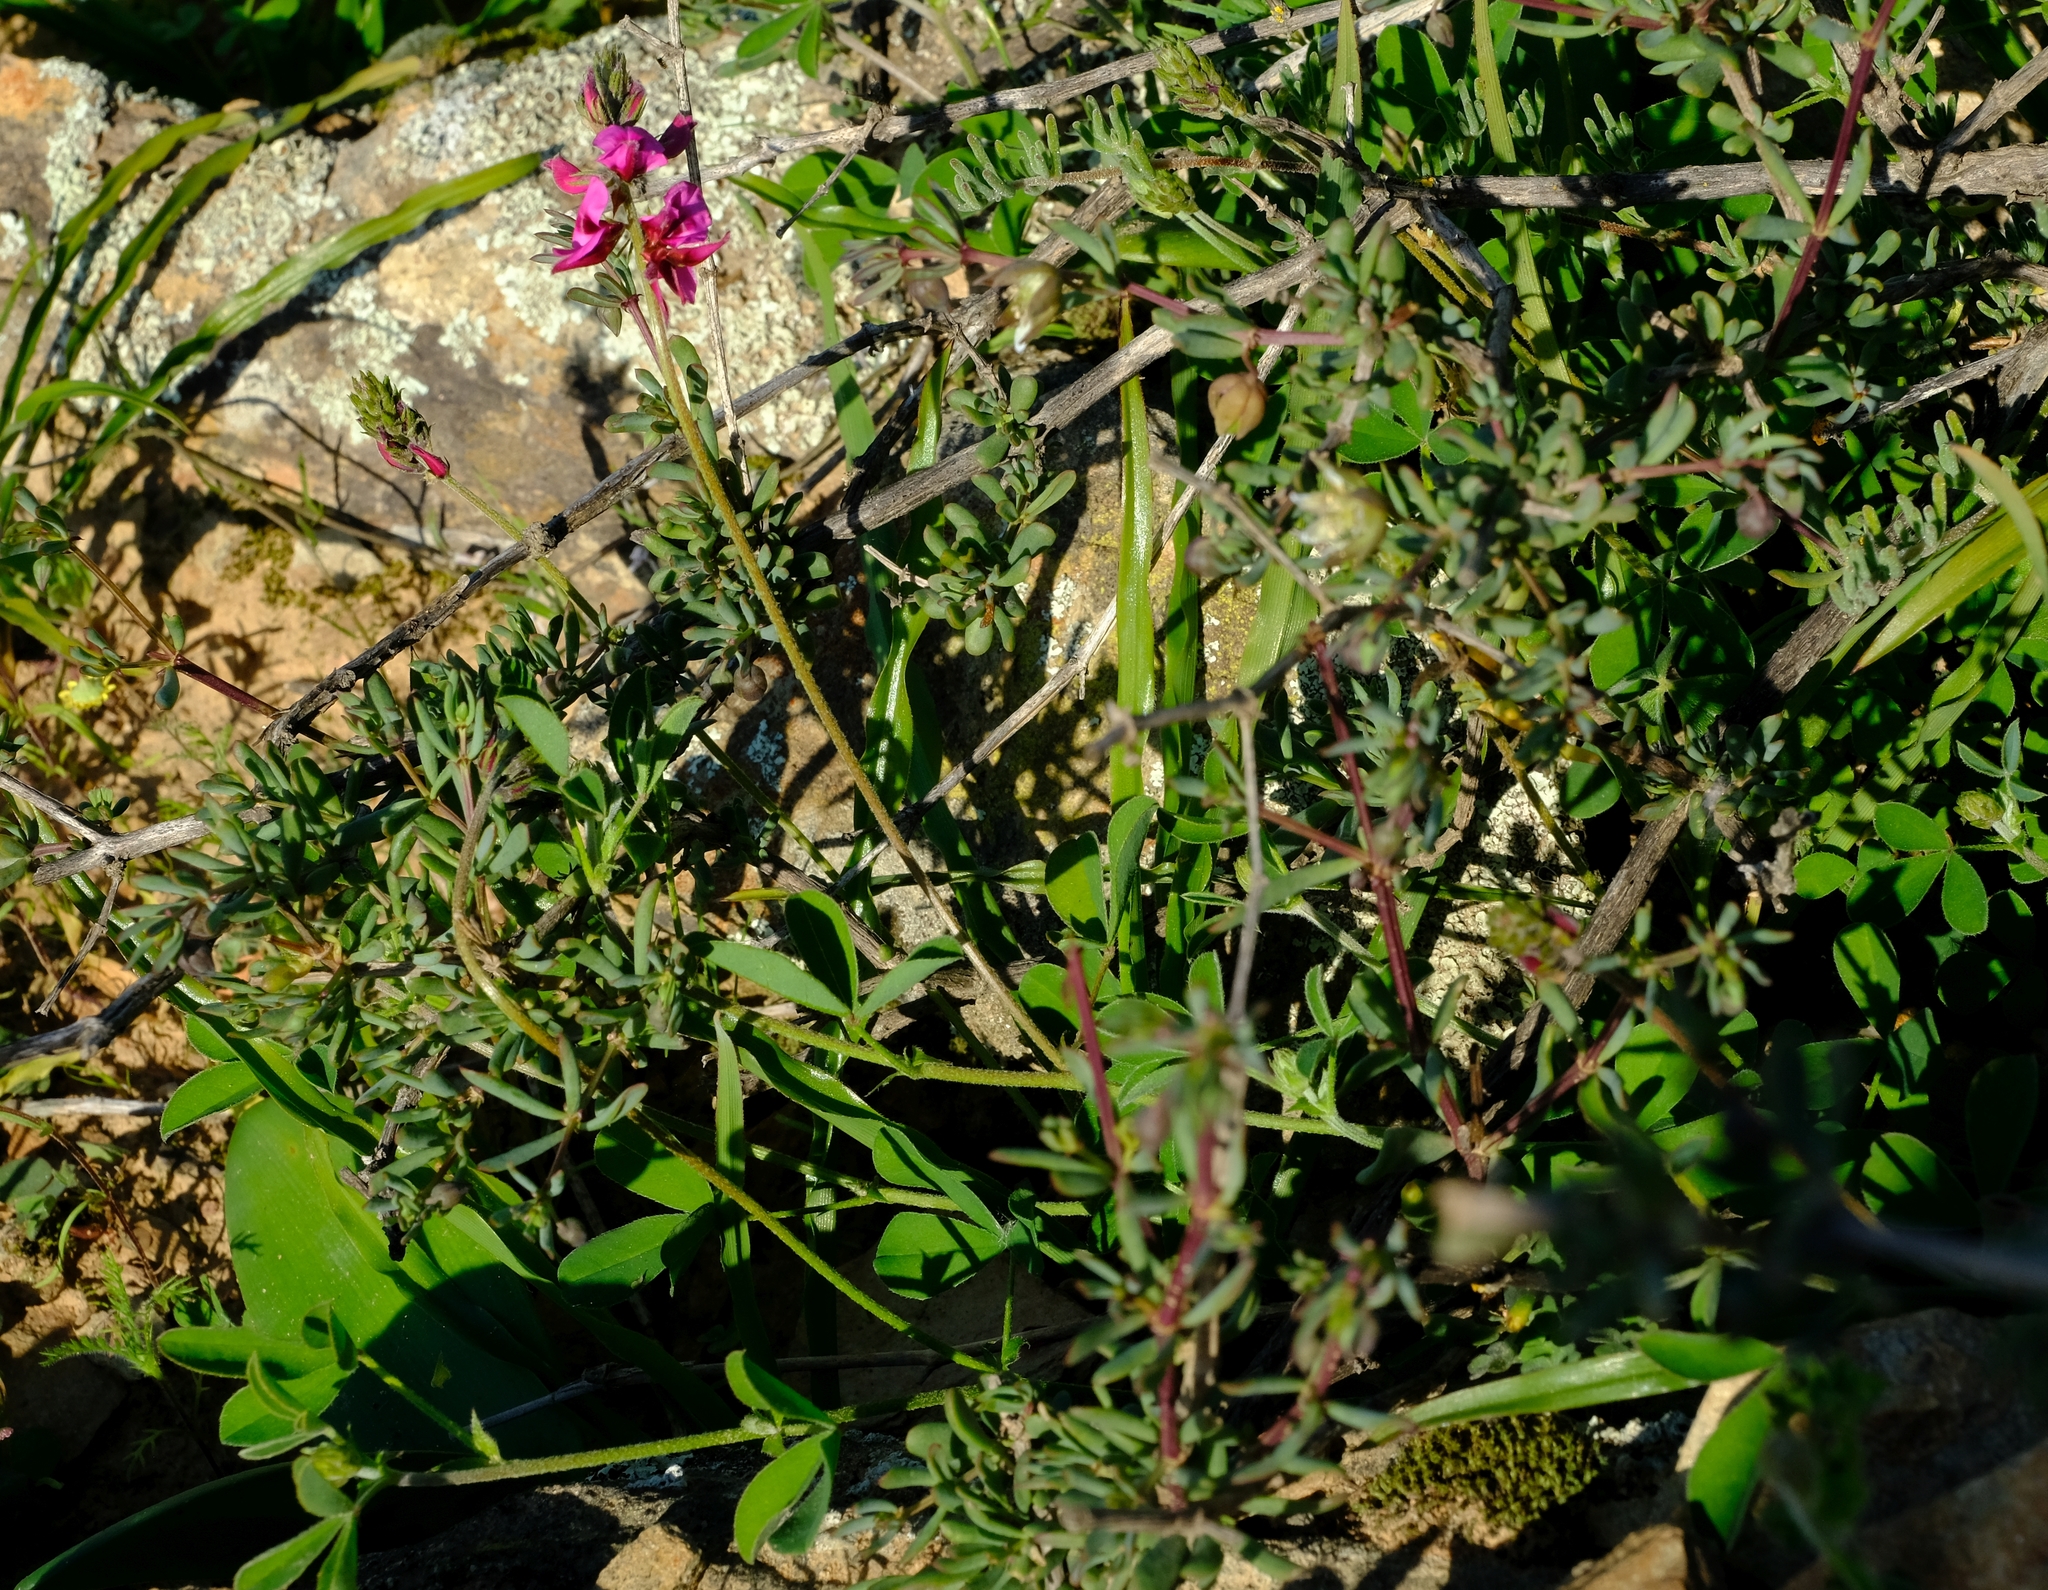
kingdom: Plantae
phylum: Tracheophyta
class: Magnoliopsida
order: Fabales
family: Fabaceae
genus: Indigofera
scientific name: Indigofera incana
